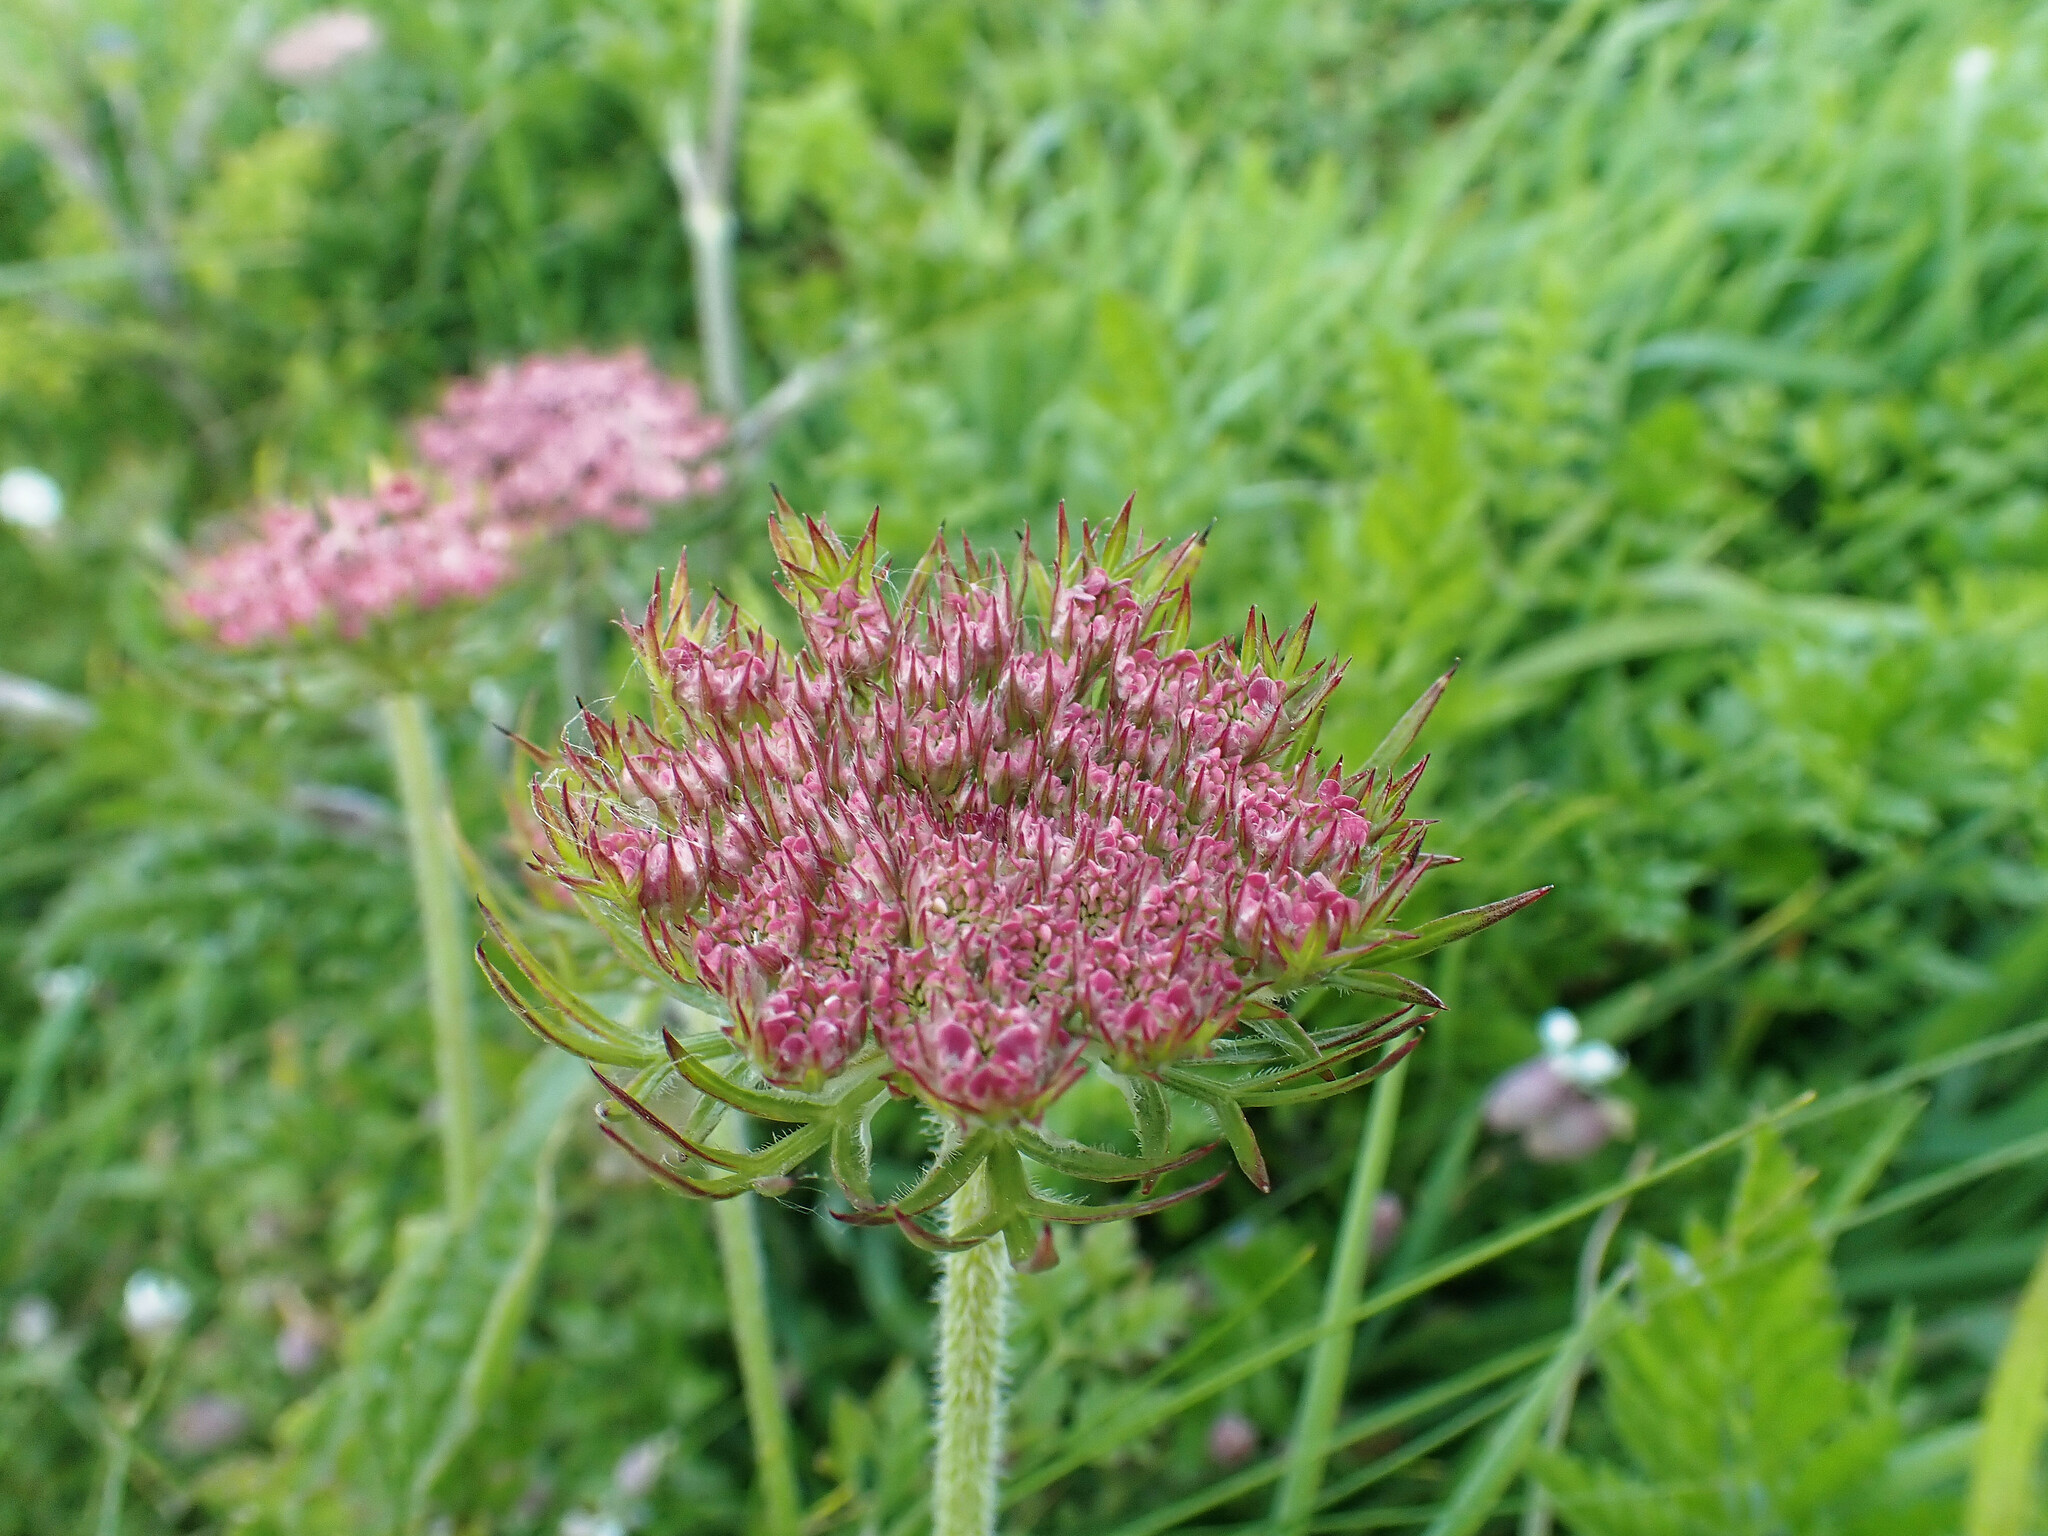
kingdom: Plantae
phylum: Tracheophyta
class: Magnoliopsida
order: Apiales
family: Apiaceae
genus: Daucus
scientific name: Daucus carota
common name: Wild carrot
